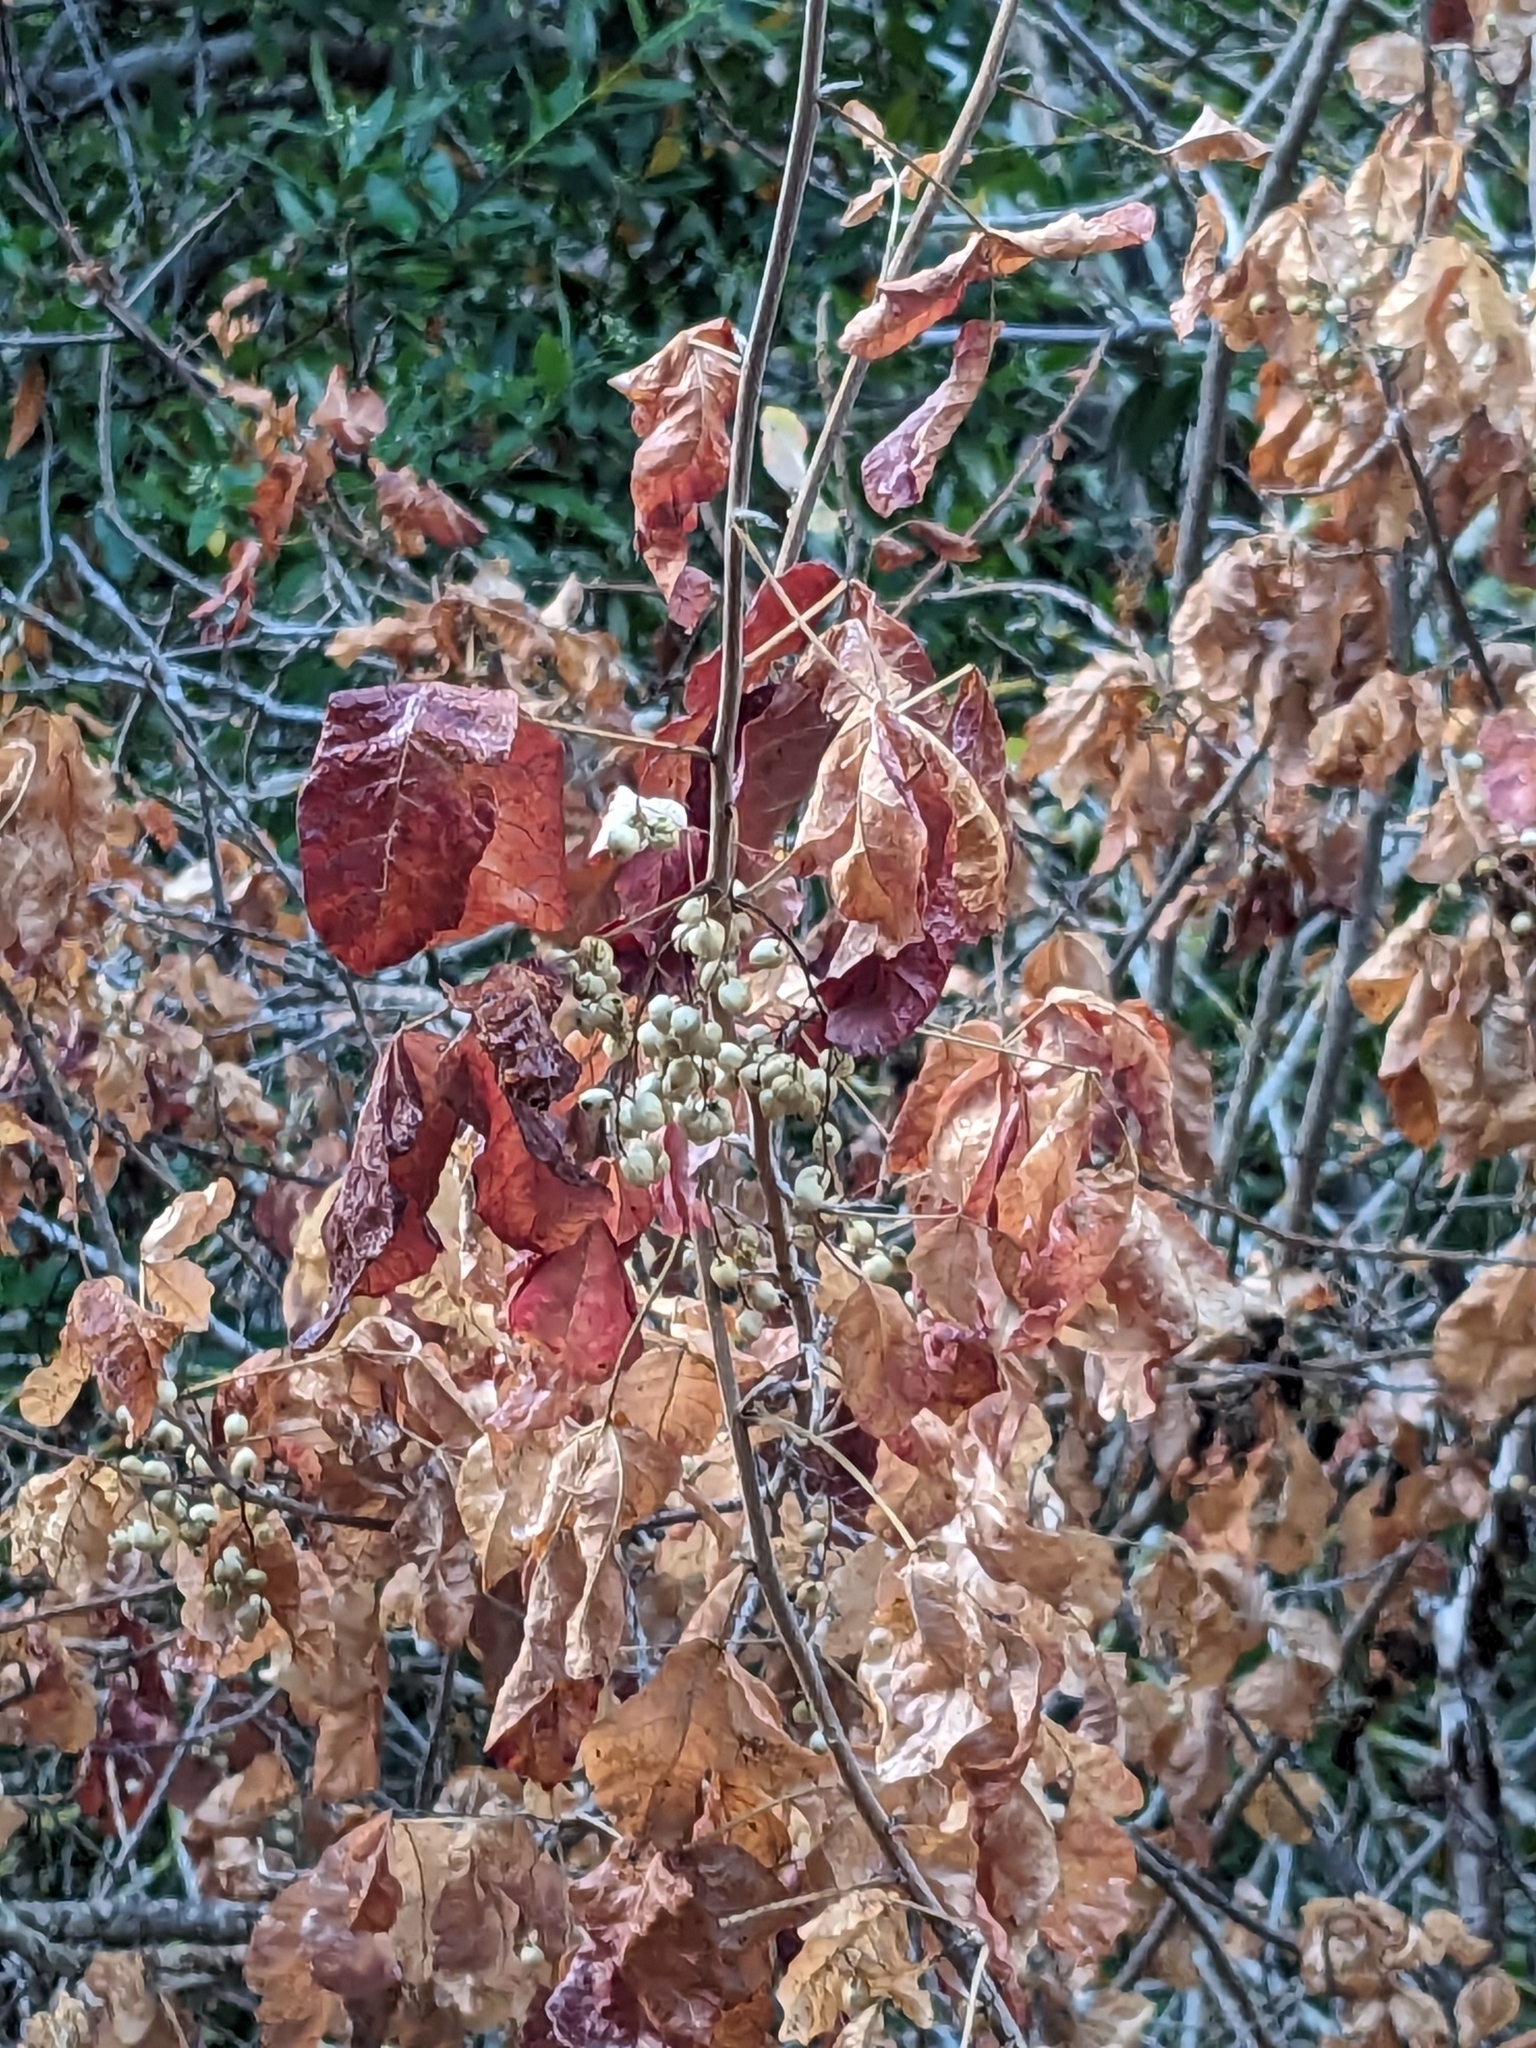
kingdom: Plantae
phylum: Tracheophyta
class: Magnoliopsida
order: Sapindales
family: Anacardiaceae
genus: Toxicodendron
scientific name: Toxicodendron diversilobum
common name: Pacific poison-oak
